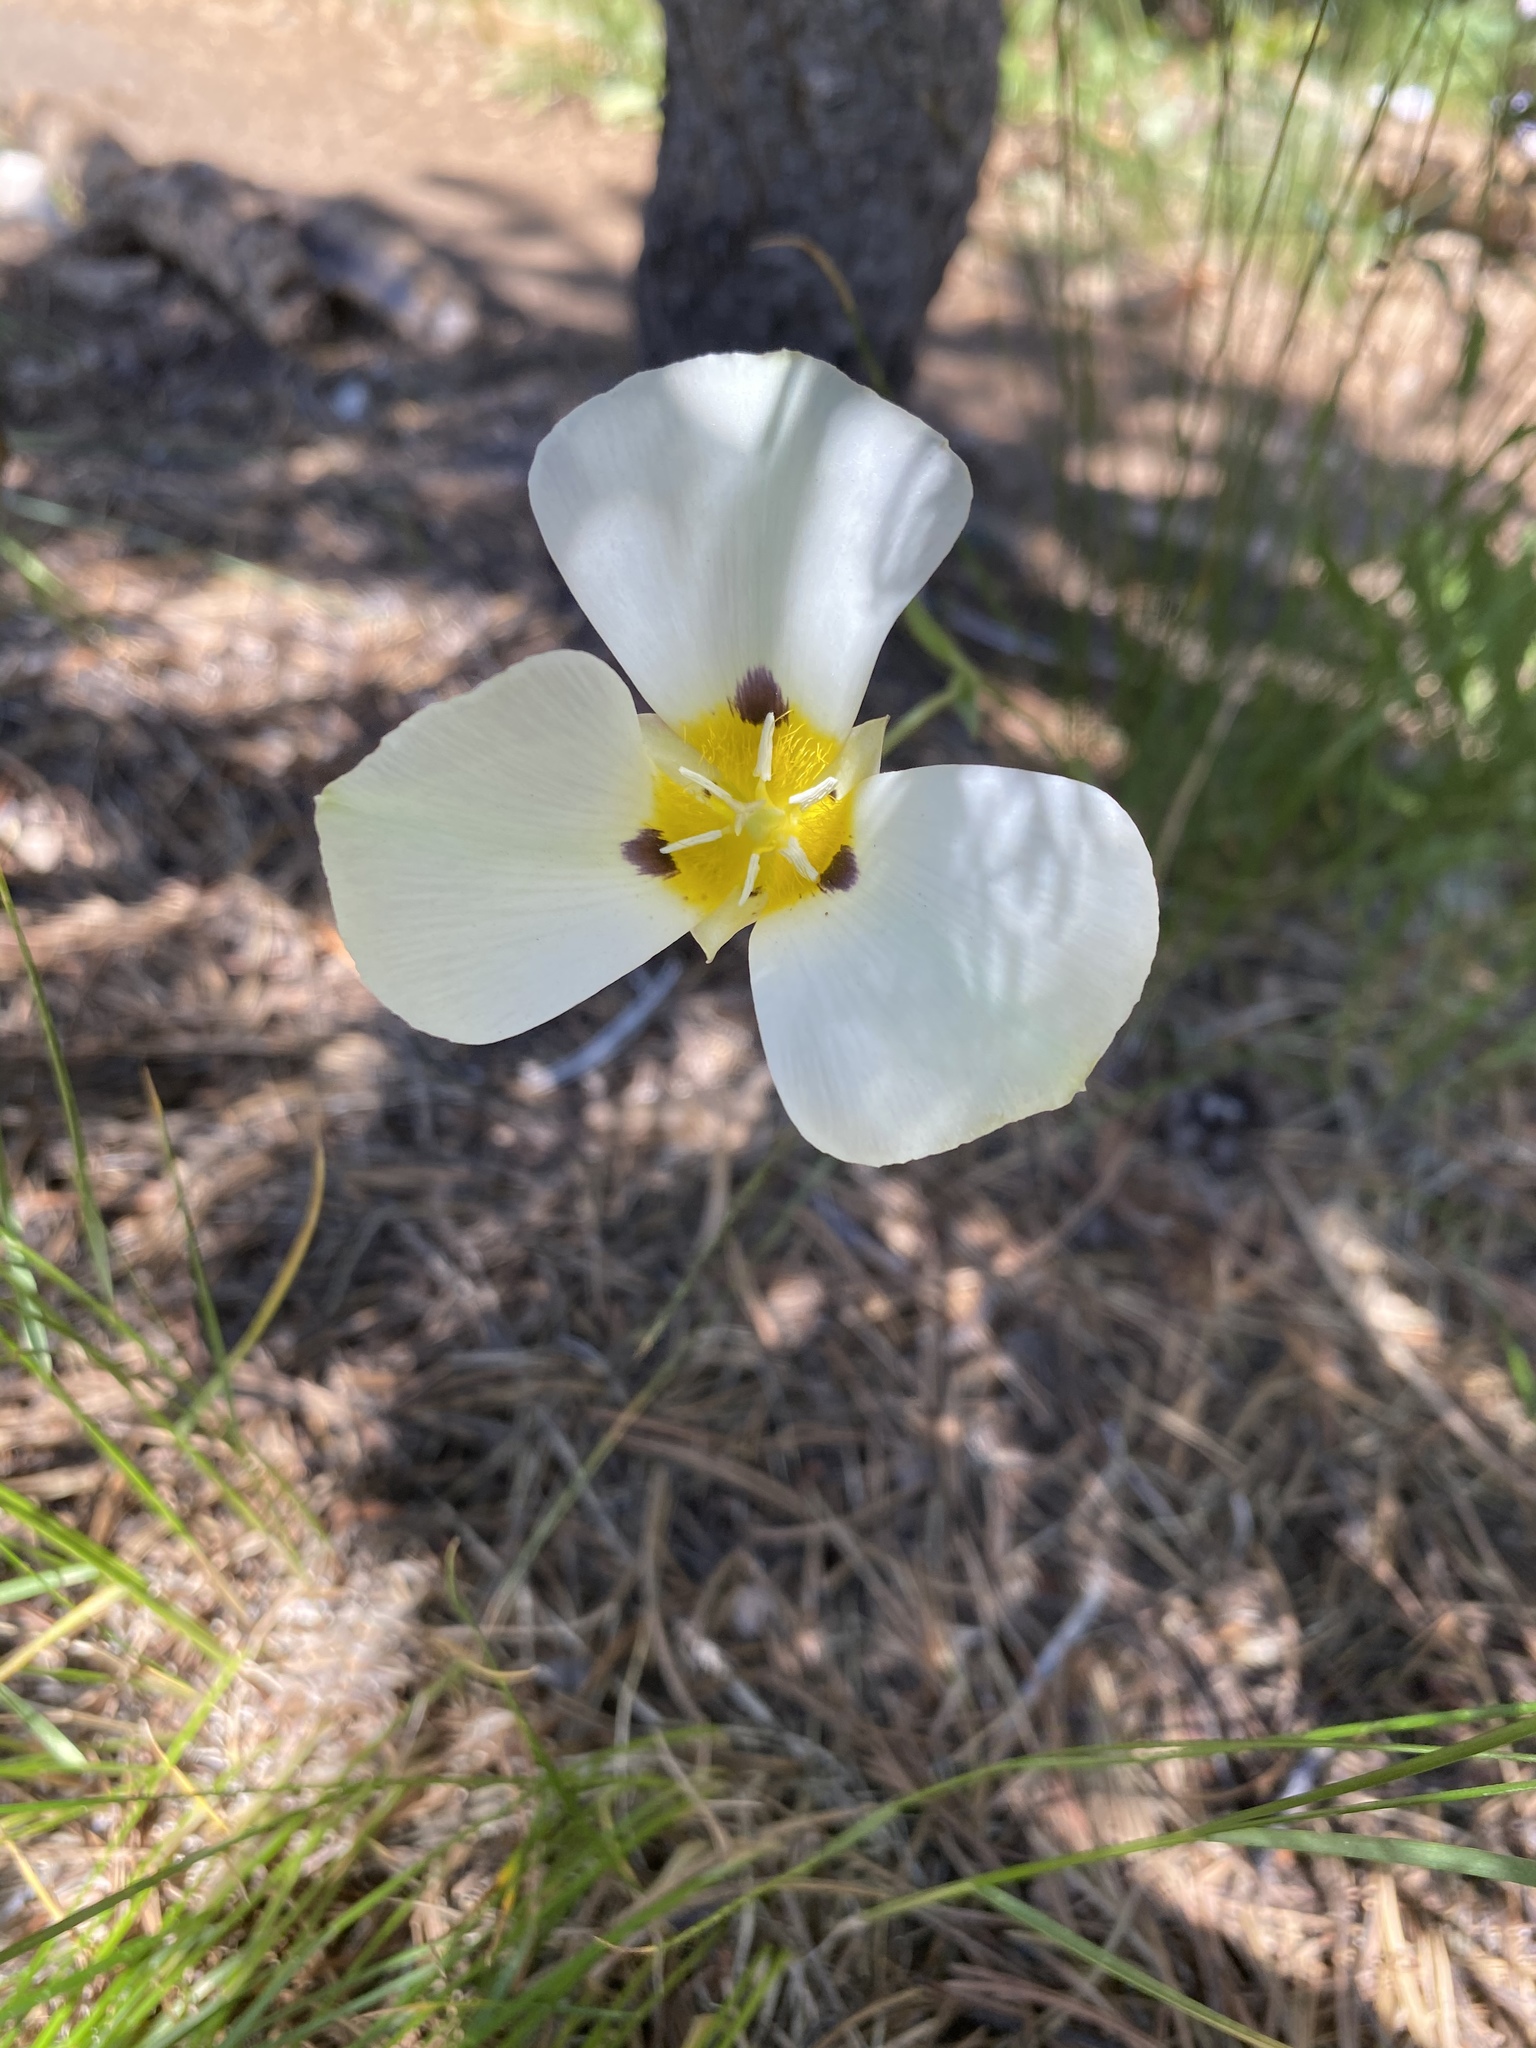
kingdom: Plantae
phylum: Tracheophyta
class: Liliopsida
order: Liliales
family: Liliaceae
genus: Calochortus
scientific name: Calochortus leichtlinii
